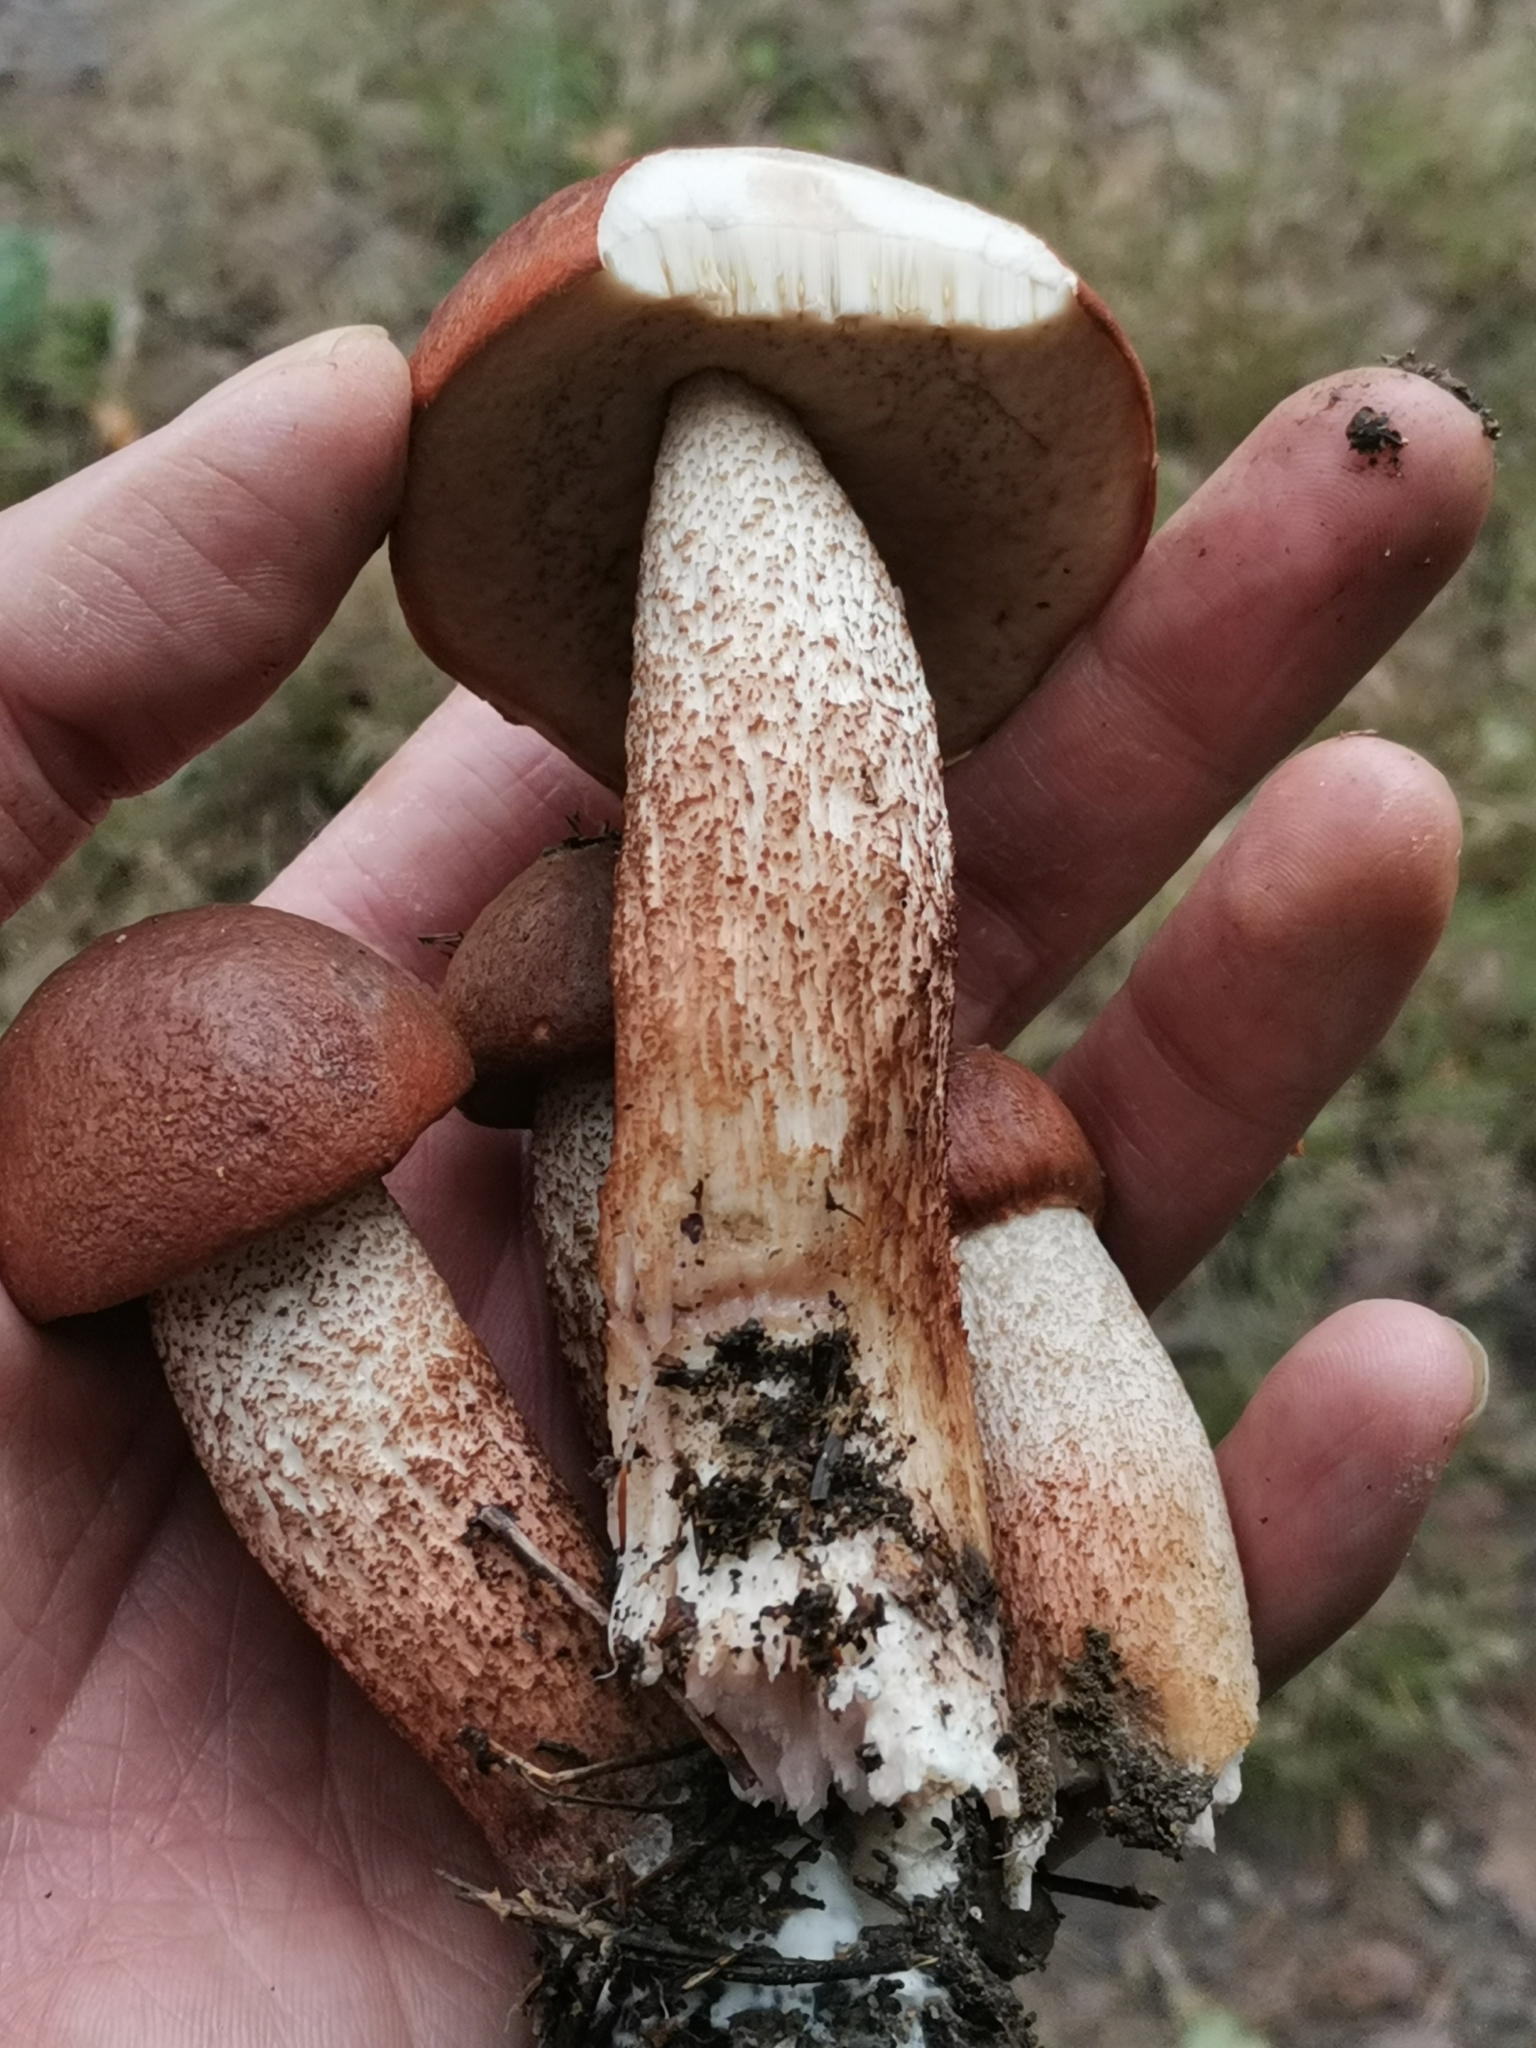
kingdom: Fungi
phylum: Basidiomycota
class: Agaricomycetes
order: Boletales
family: Boletaceae
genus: Leccinum
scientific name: Leccinum aurantiacum
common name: Orange bolete
